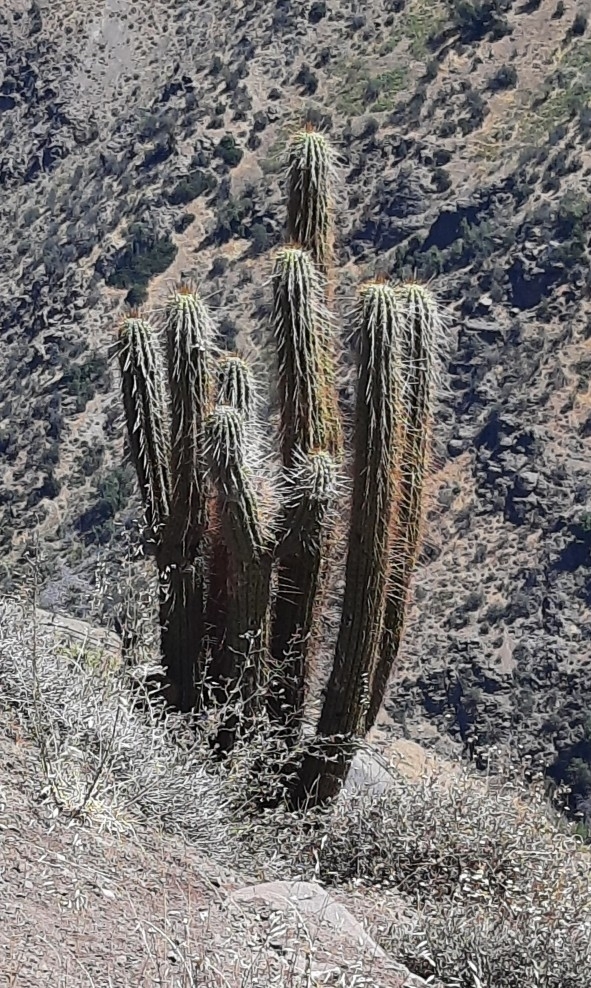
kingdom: Plantae
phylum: Tracheophyta
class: Magnoliopsida
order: Caryophyllales
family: Cactaceae
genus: Leucostele
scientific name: Leucostele chiloensis
